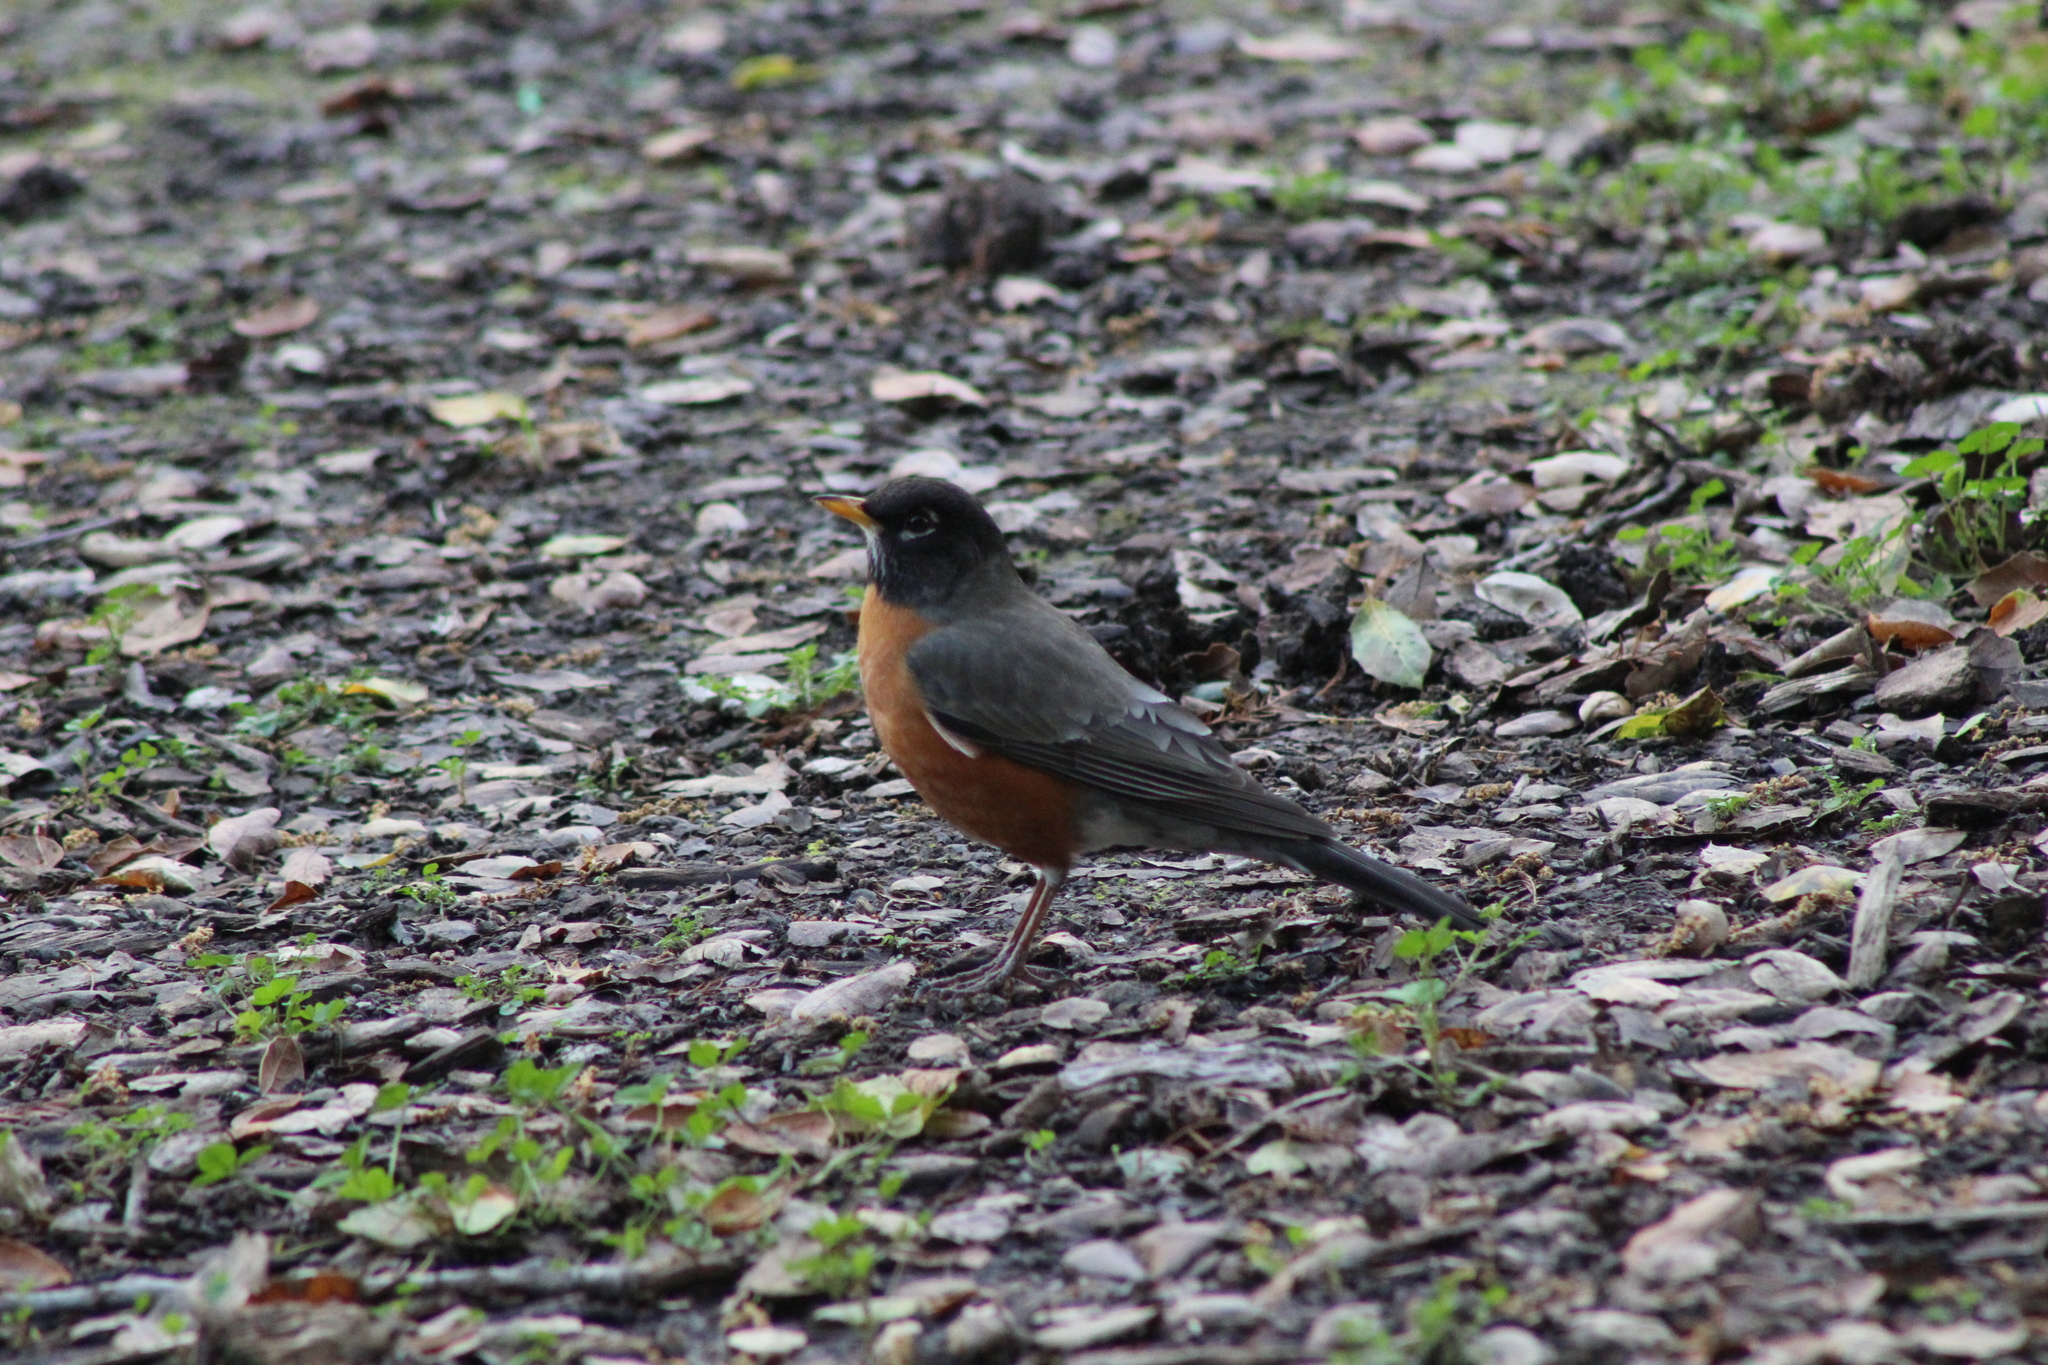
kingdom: Animalia
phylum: Chordata
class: Aves
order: Passeriformes
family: Turdidae
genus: Turdus
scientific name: Turdus migratorius
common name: American robin
